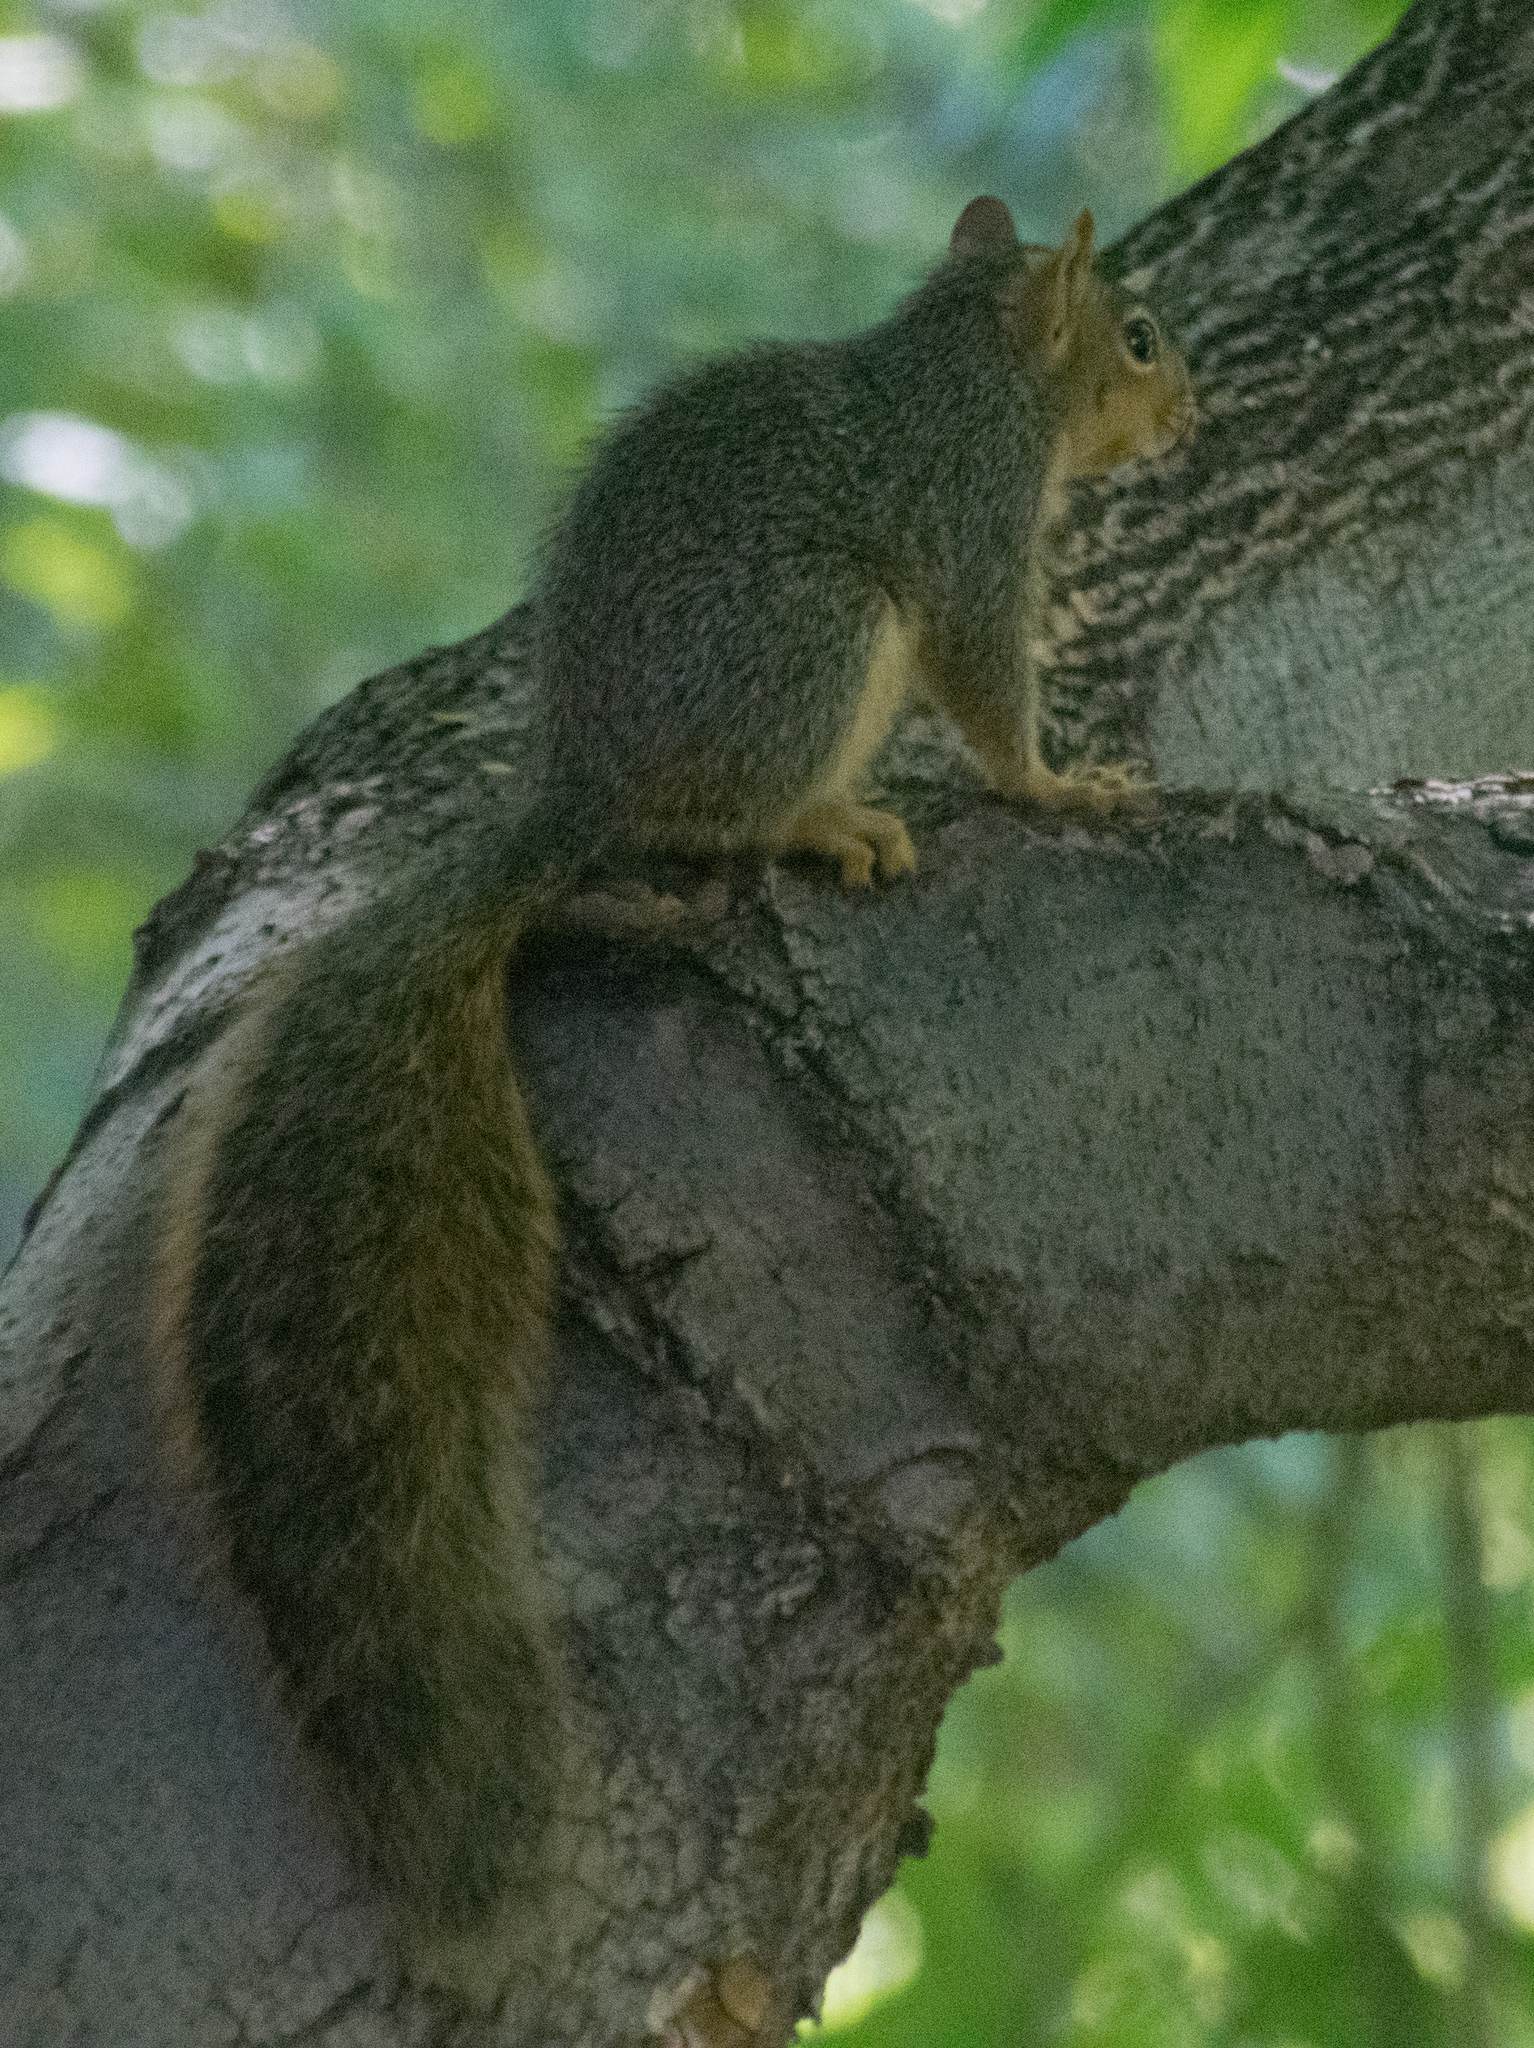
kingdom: Animalia
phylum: Chordata
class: Mammalia
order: Rodentia
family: Sciuridae
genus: Sciurus
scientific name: Sciurus niger
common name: Fox squirrel
